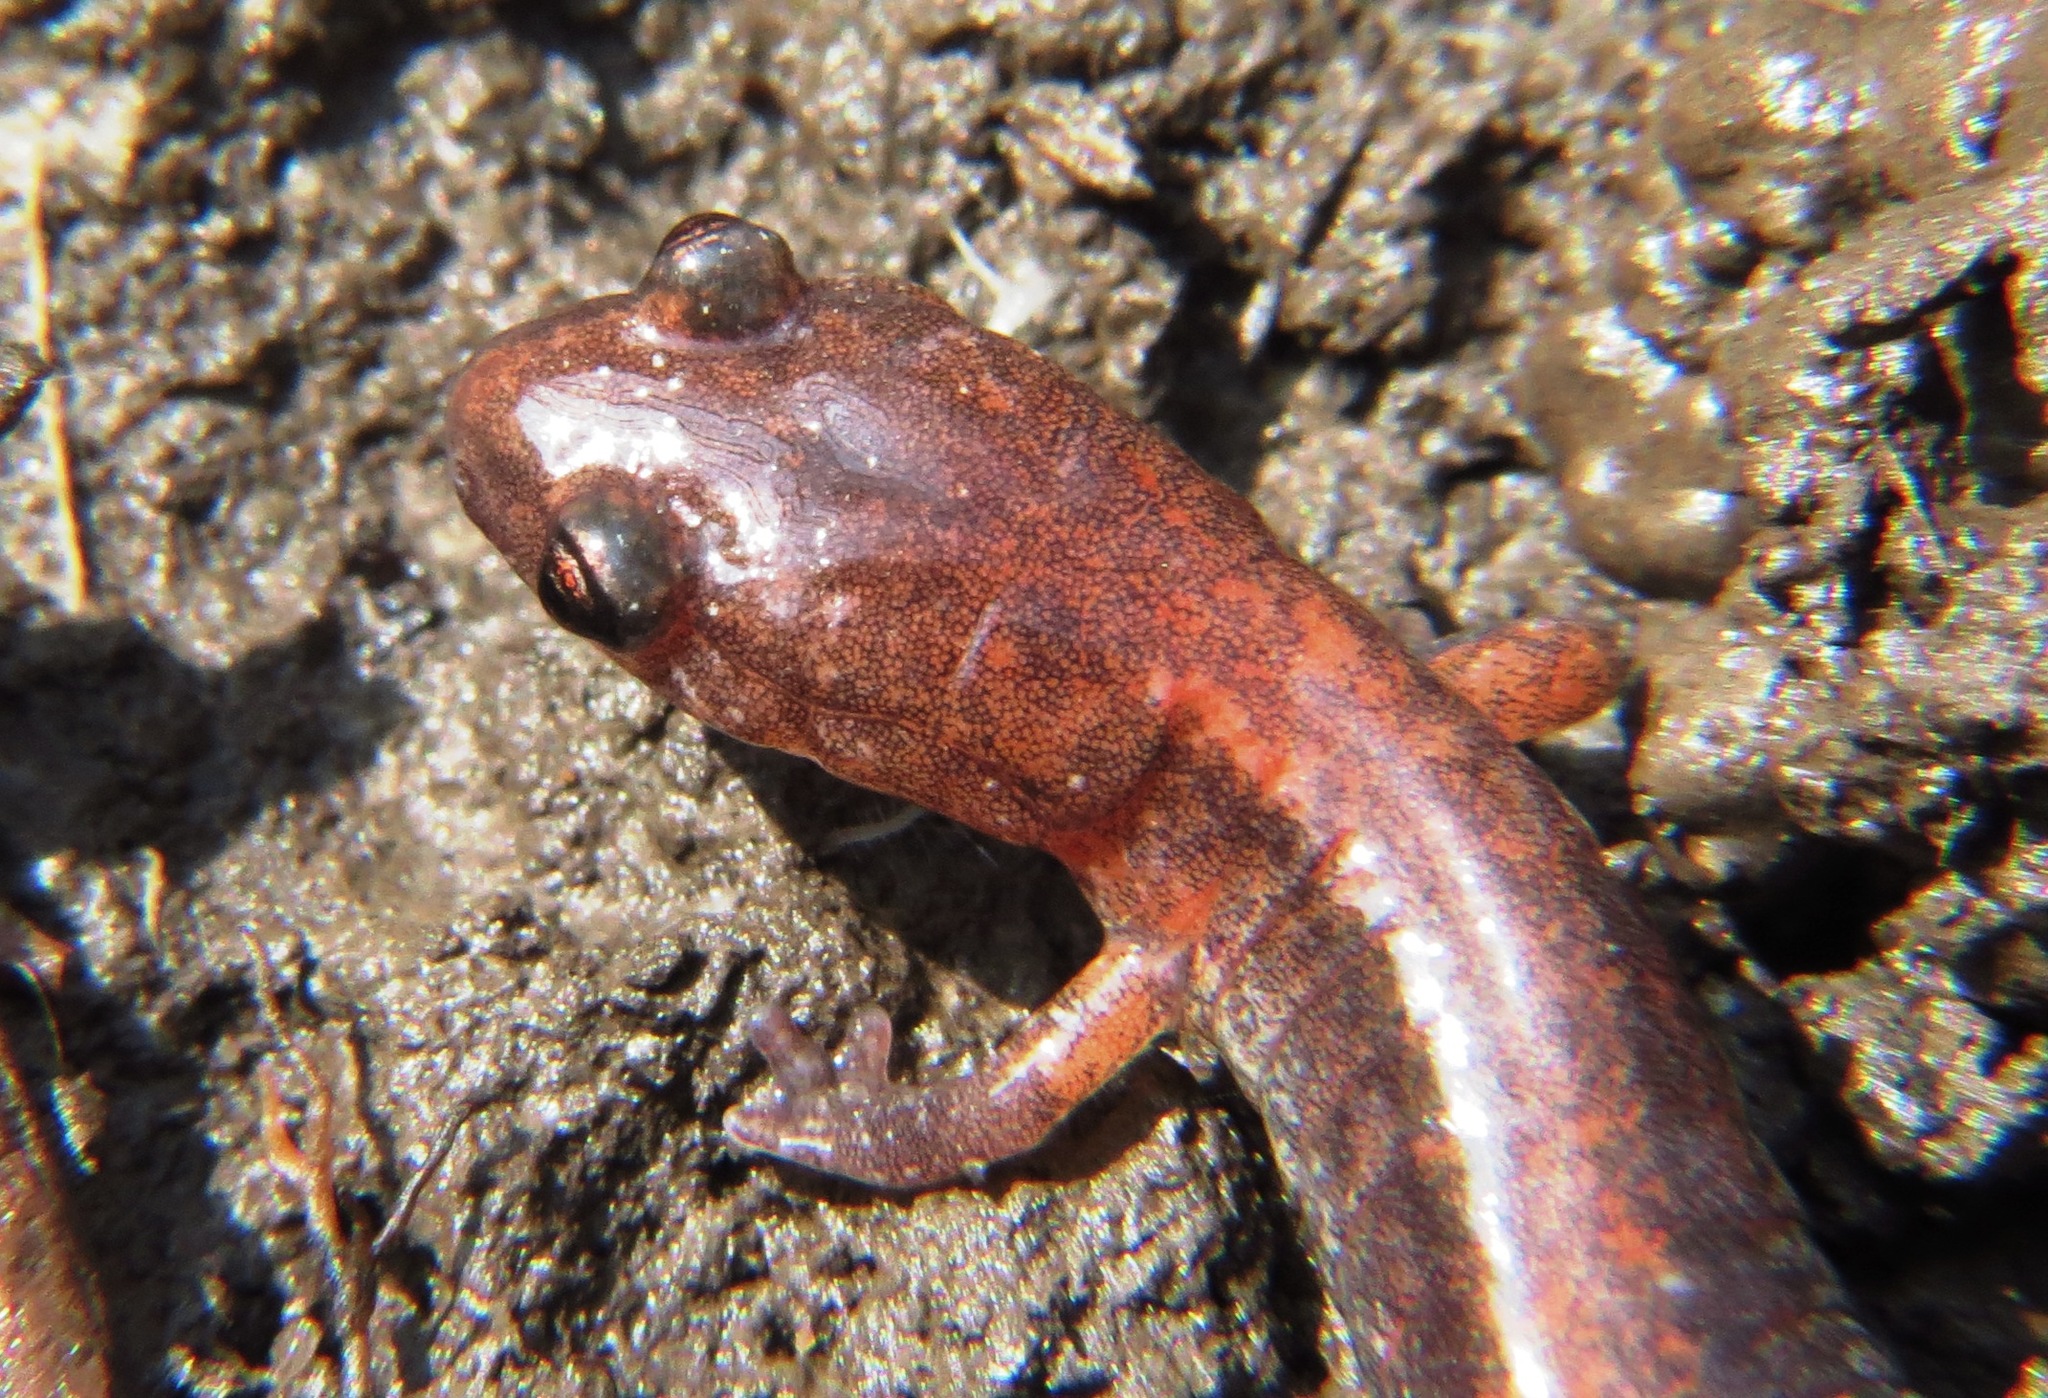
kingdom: Animalia
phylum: Chordata
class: Amphibia
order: Caudata
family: Plethodontidae
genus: Plethodon
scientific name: Plethodon cinereus
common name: Redback salamander
